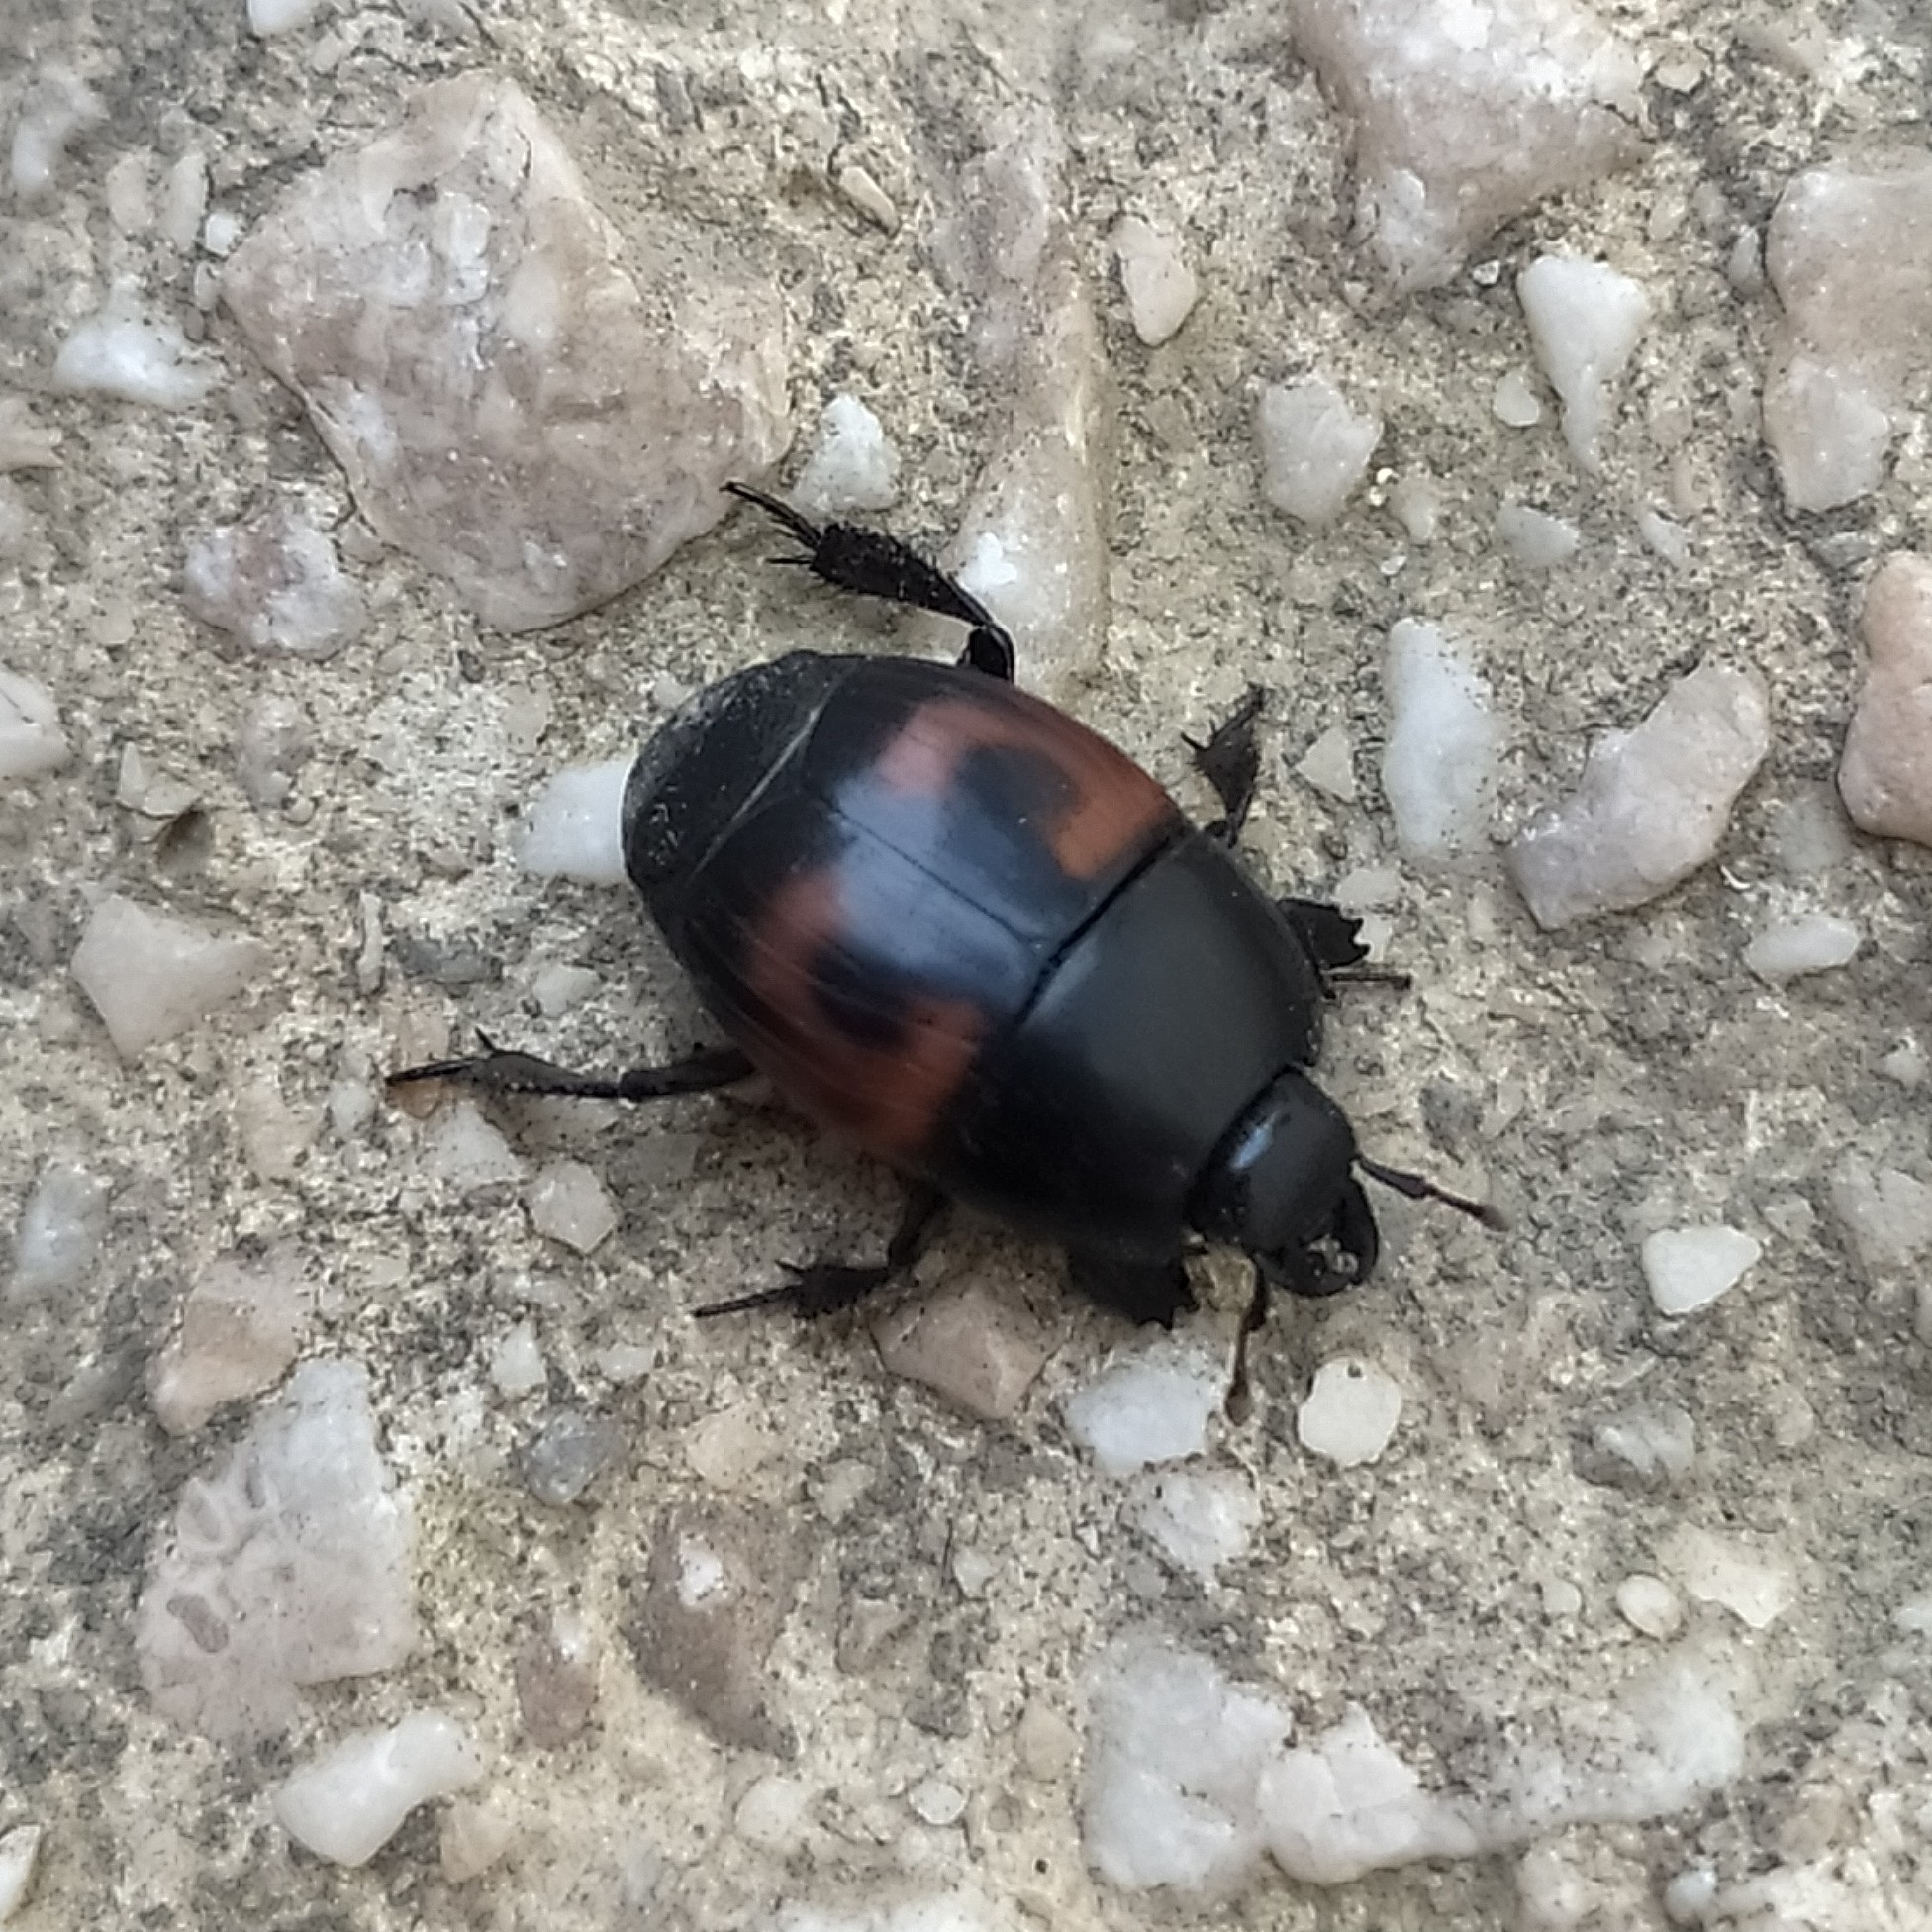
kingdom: Animalia
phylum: Arthropoda
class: Insecta
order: Coleoptera
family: Histeridae
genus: Hister
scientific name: Hister quadrimaculatus
